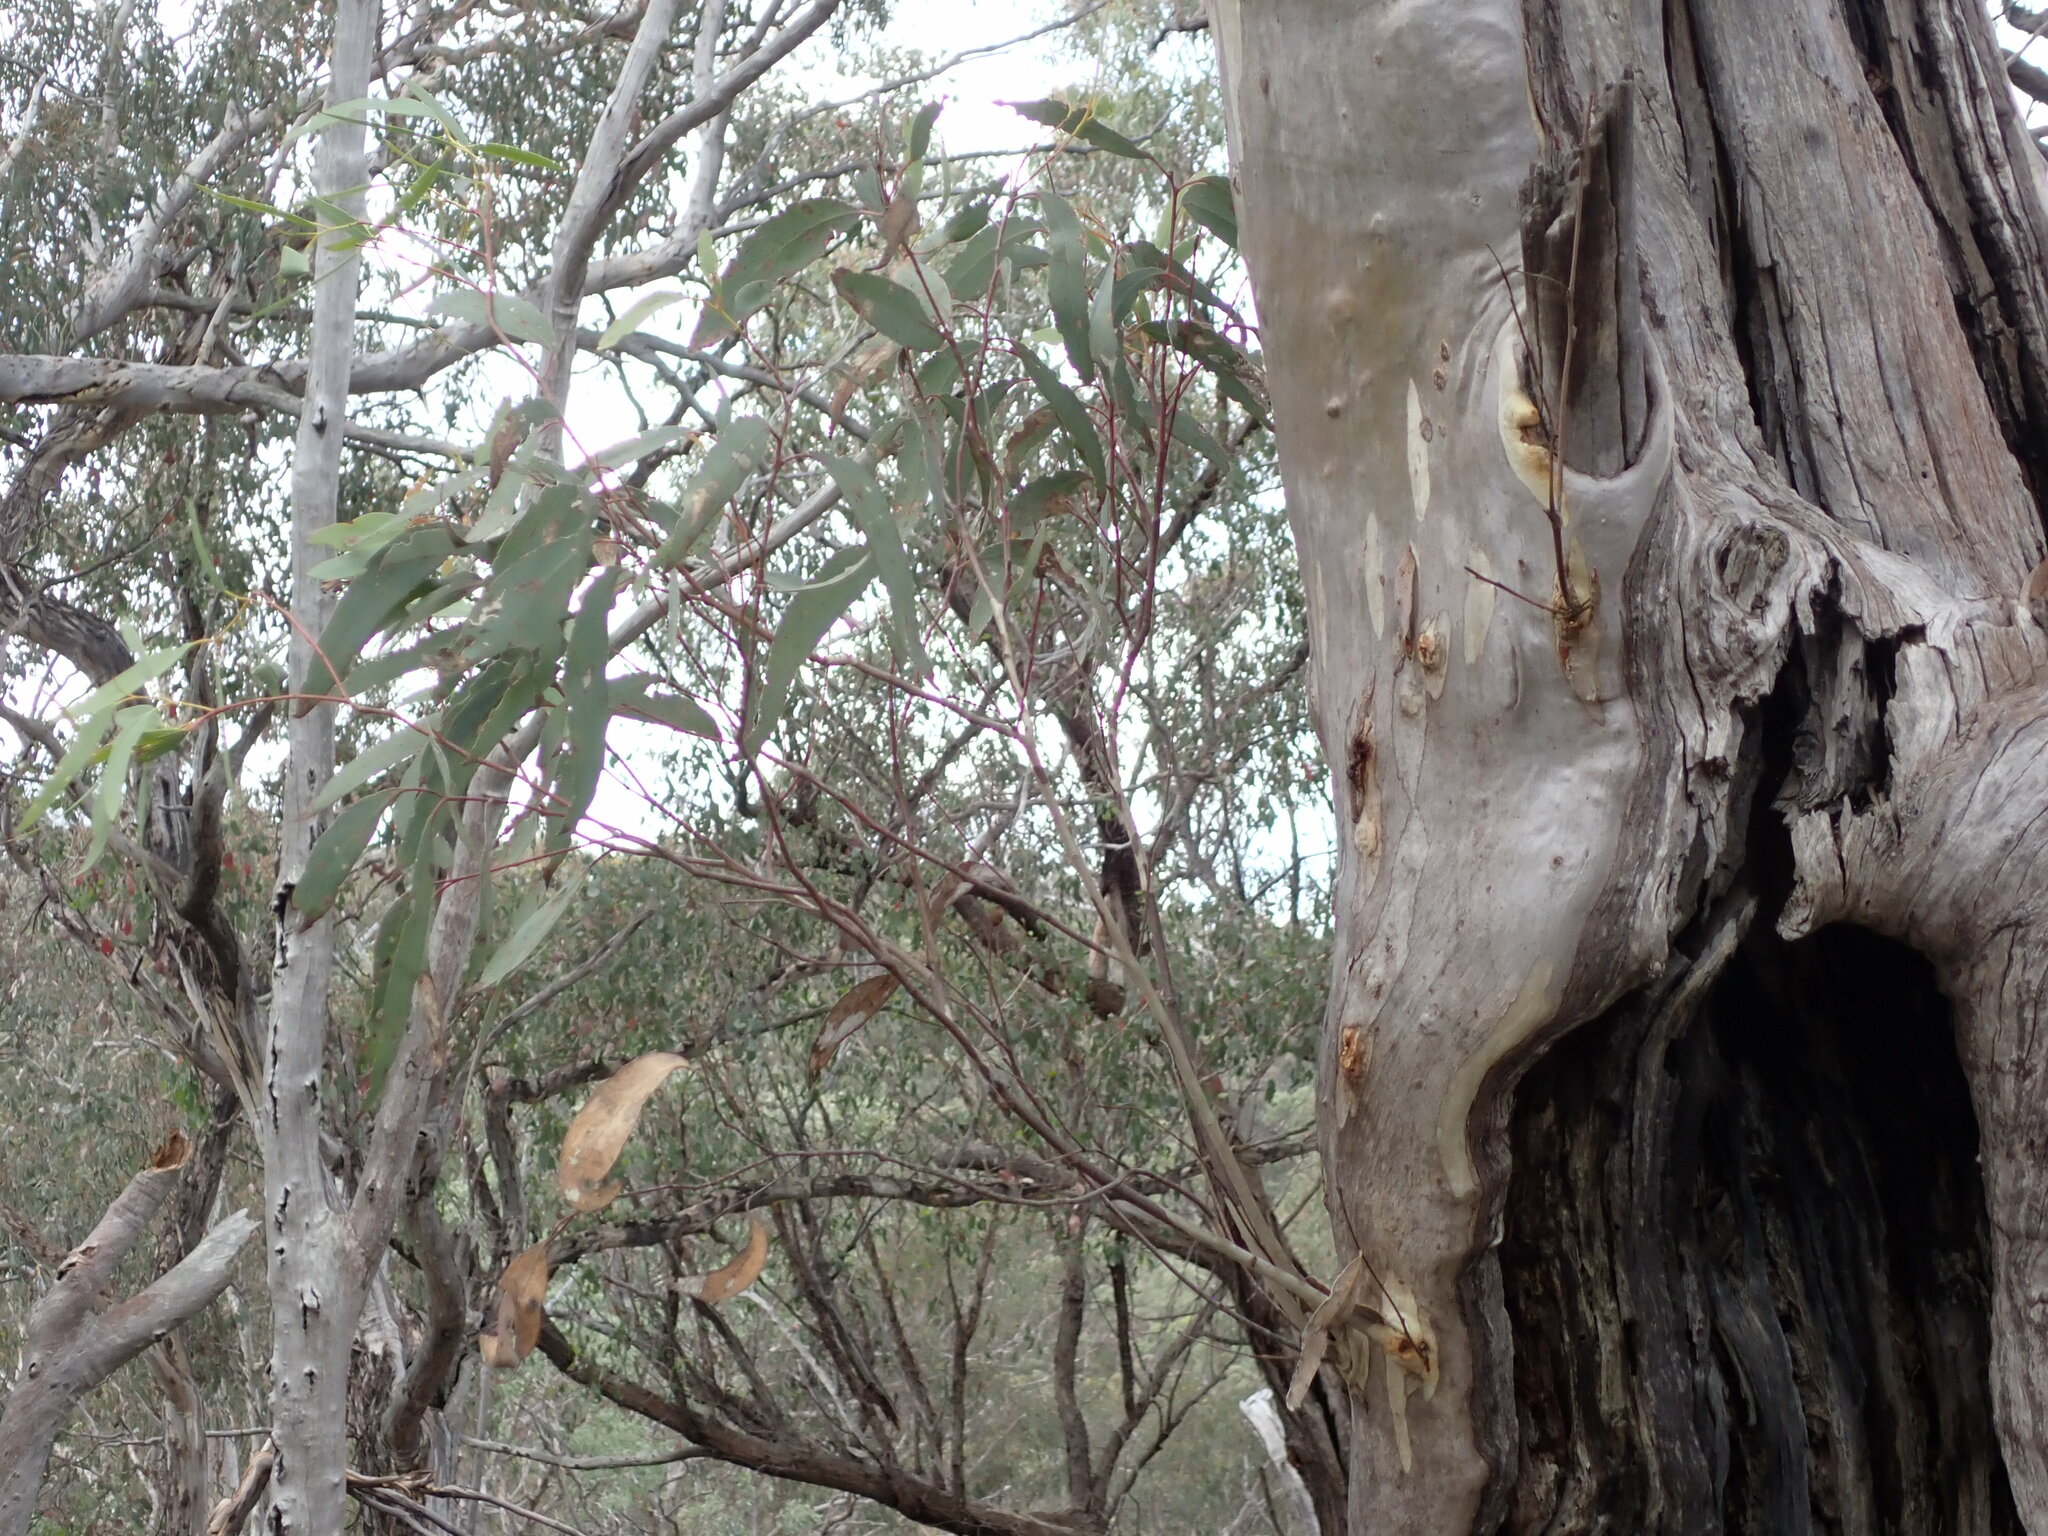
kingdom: Plantae
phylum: Tracheophyta
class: Magnoliopsida
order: Myrtales
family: Myrtaceae
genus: Eucalyptus
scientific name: Eucalyptus racemosa
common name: Scribbly gum
